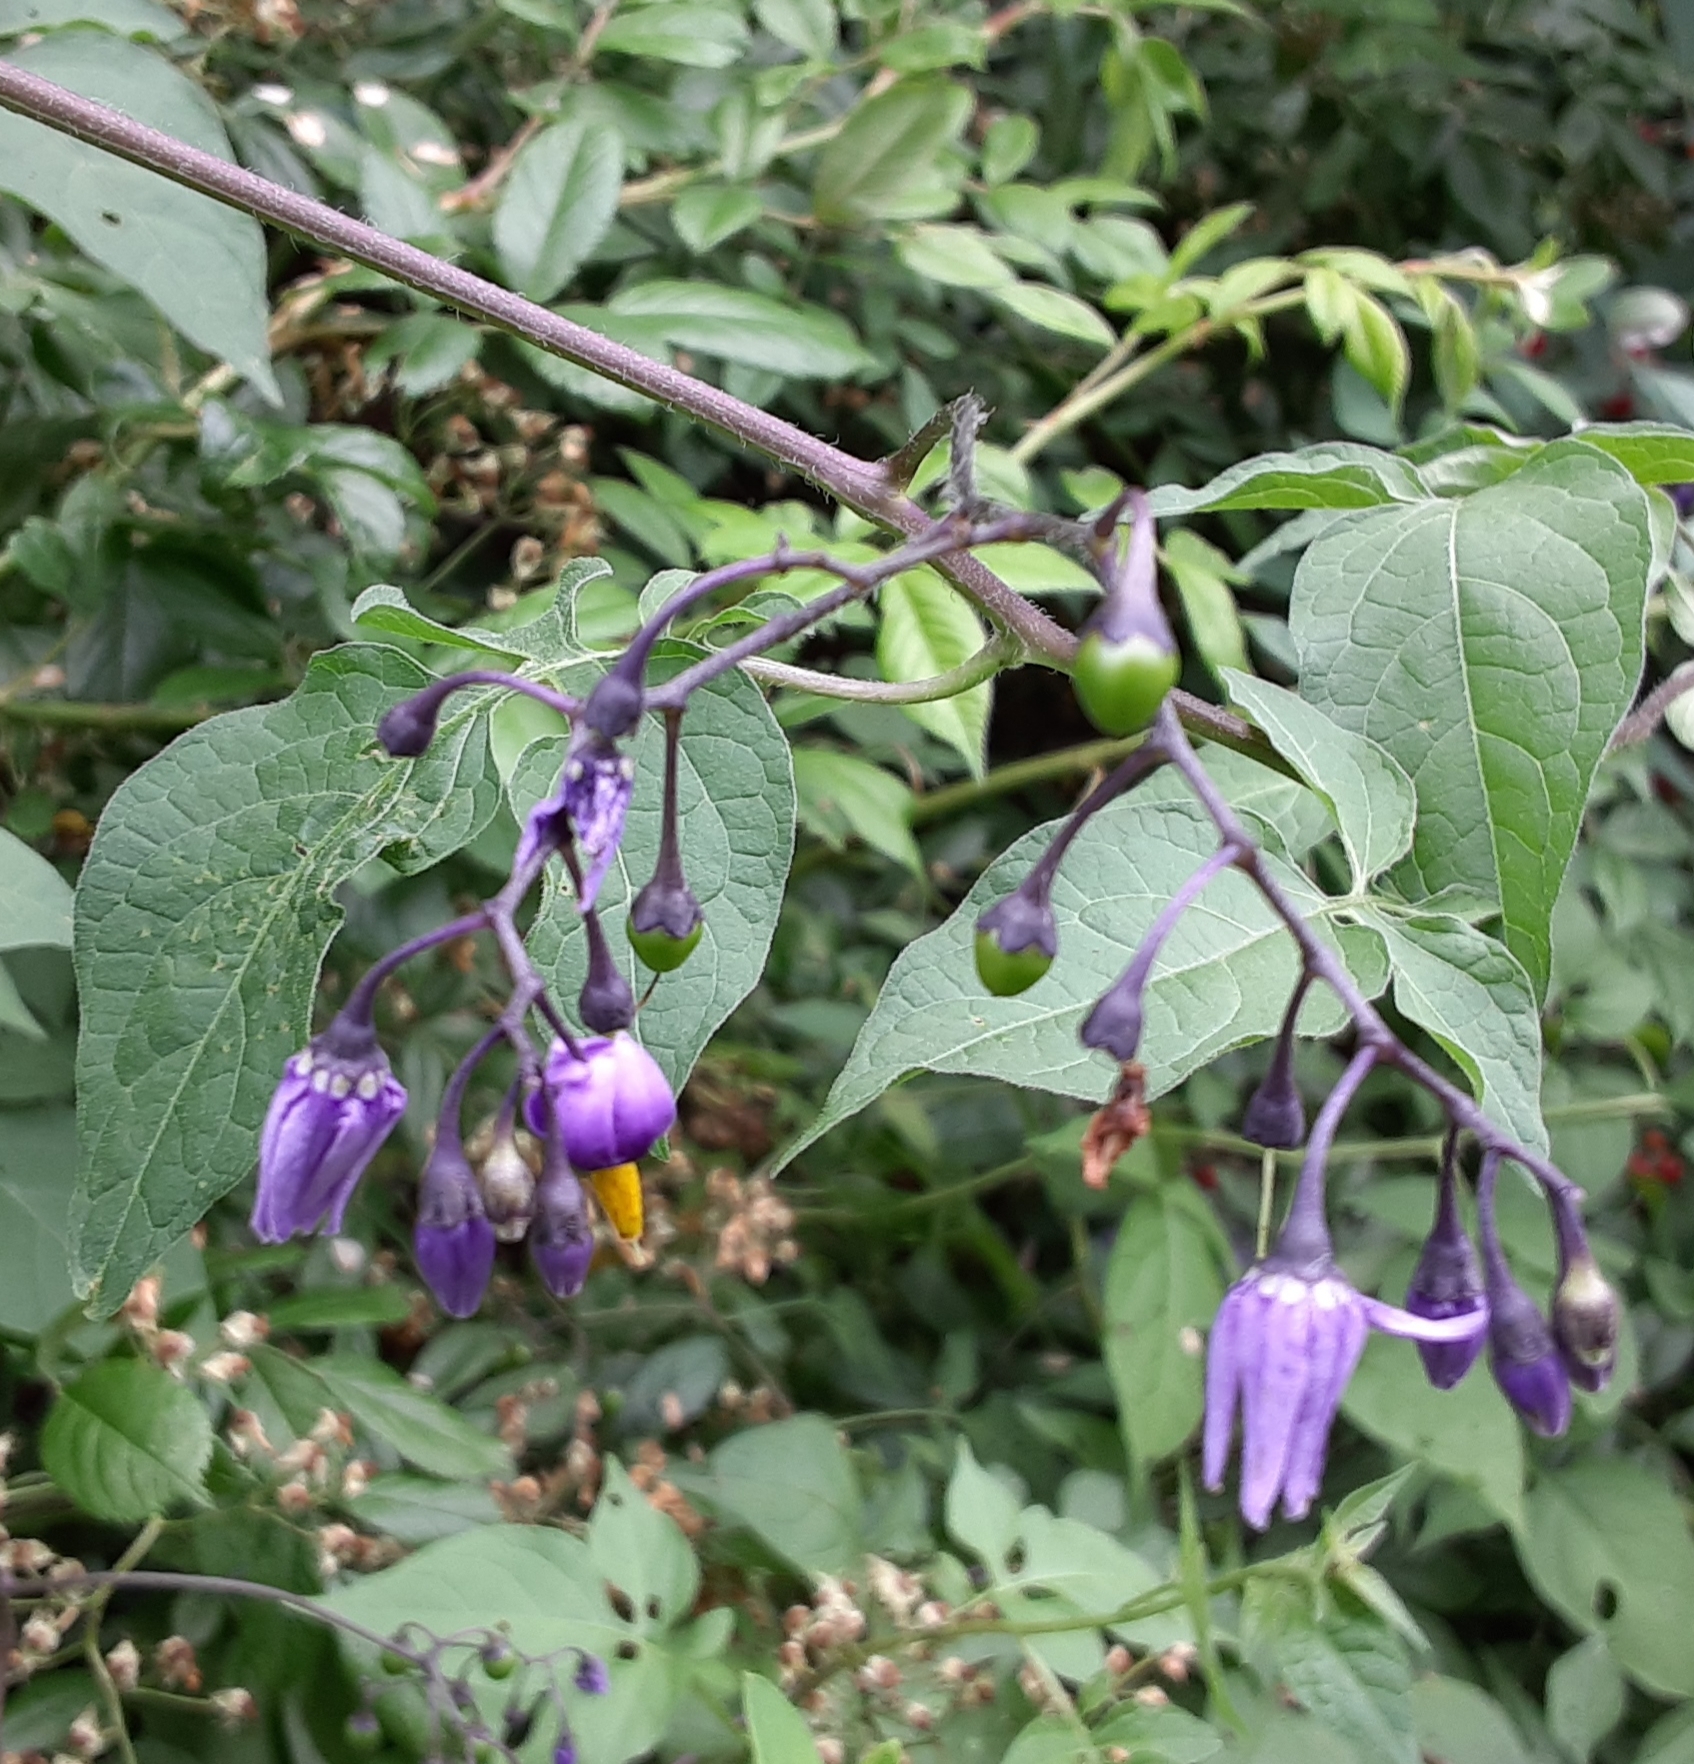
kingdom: Plantae
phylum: Tracheophyta
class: Magnoliopsida
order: Solanales
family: Solanaceae
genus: Solanum
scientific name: Solanum dulcamara
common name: Climbing nightshade
